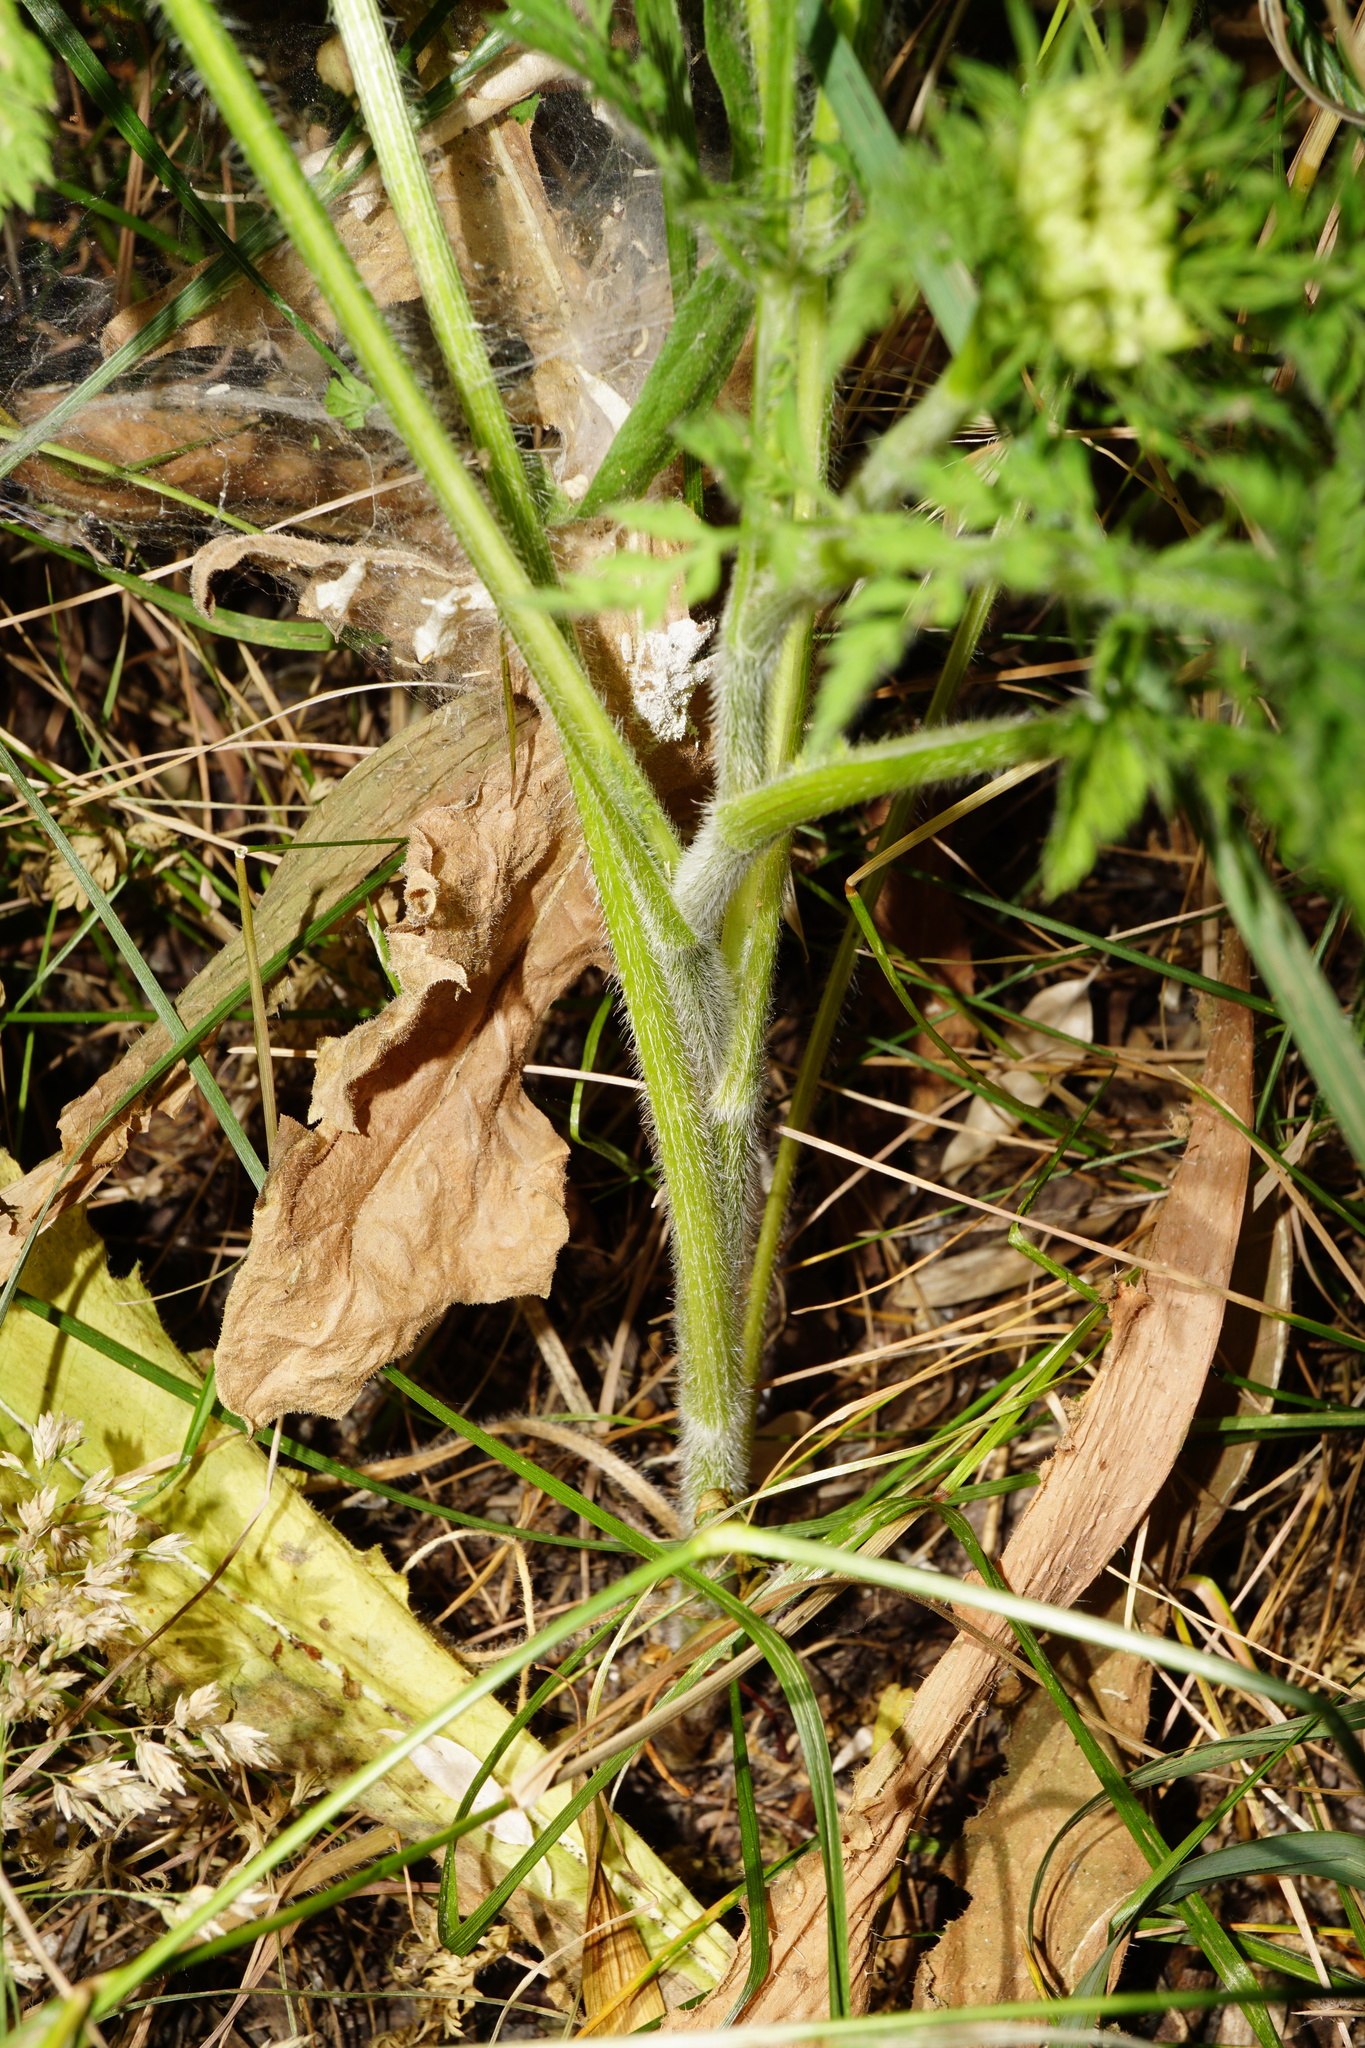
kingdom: Plantae
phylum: Tracheophyta
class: Magnoliopsida
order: Apiales
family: Apiaceae
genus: Daucus
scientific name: Daucus carota
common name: Wild carrot
